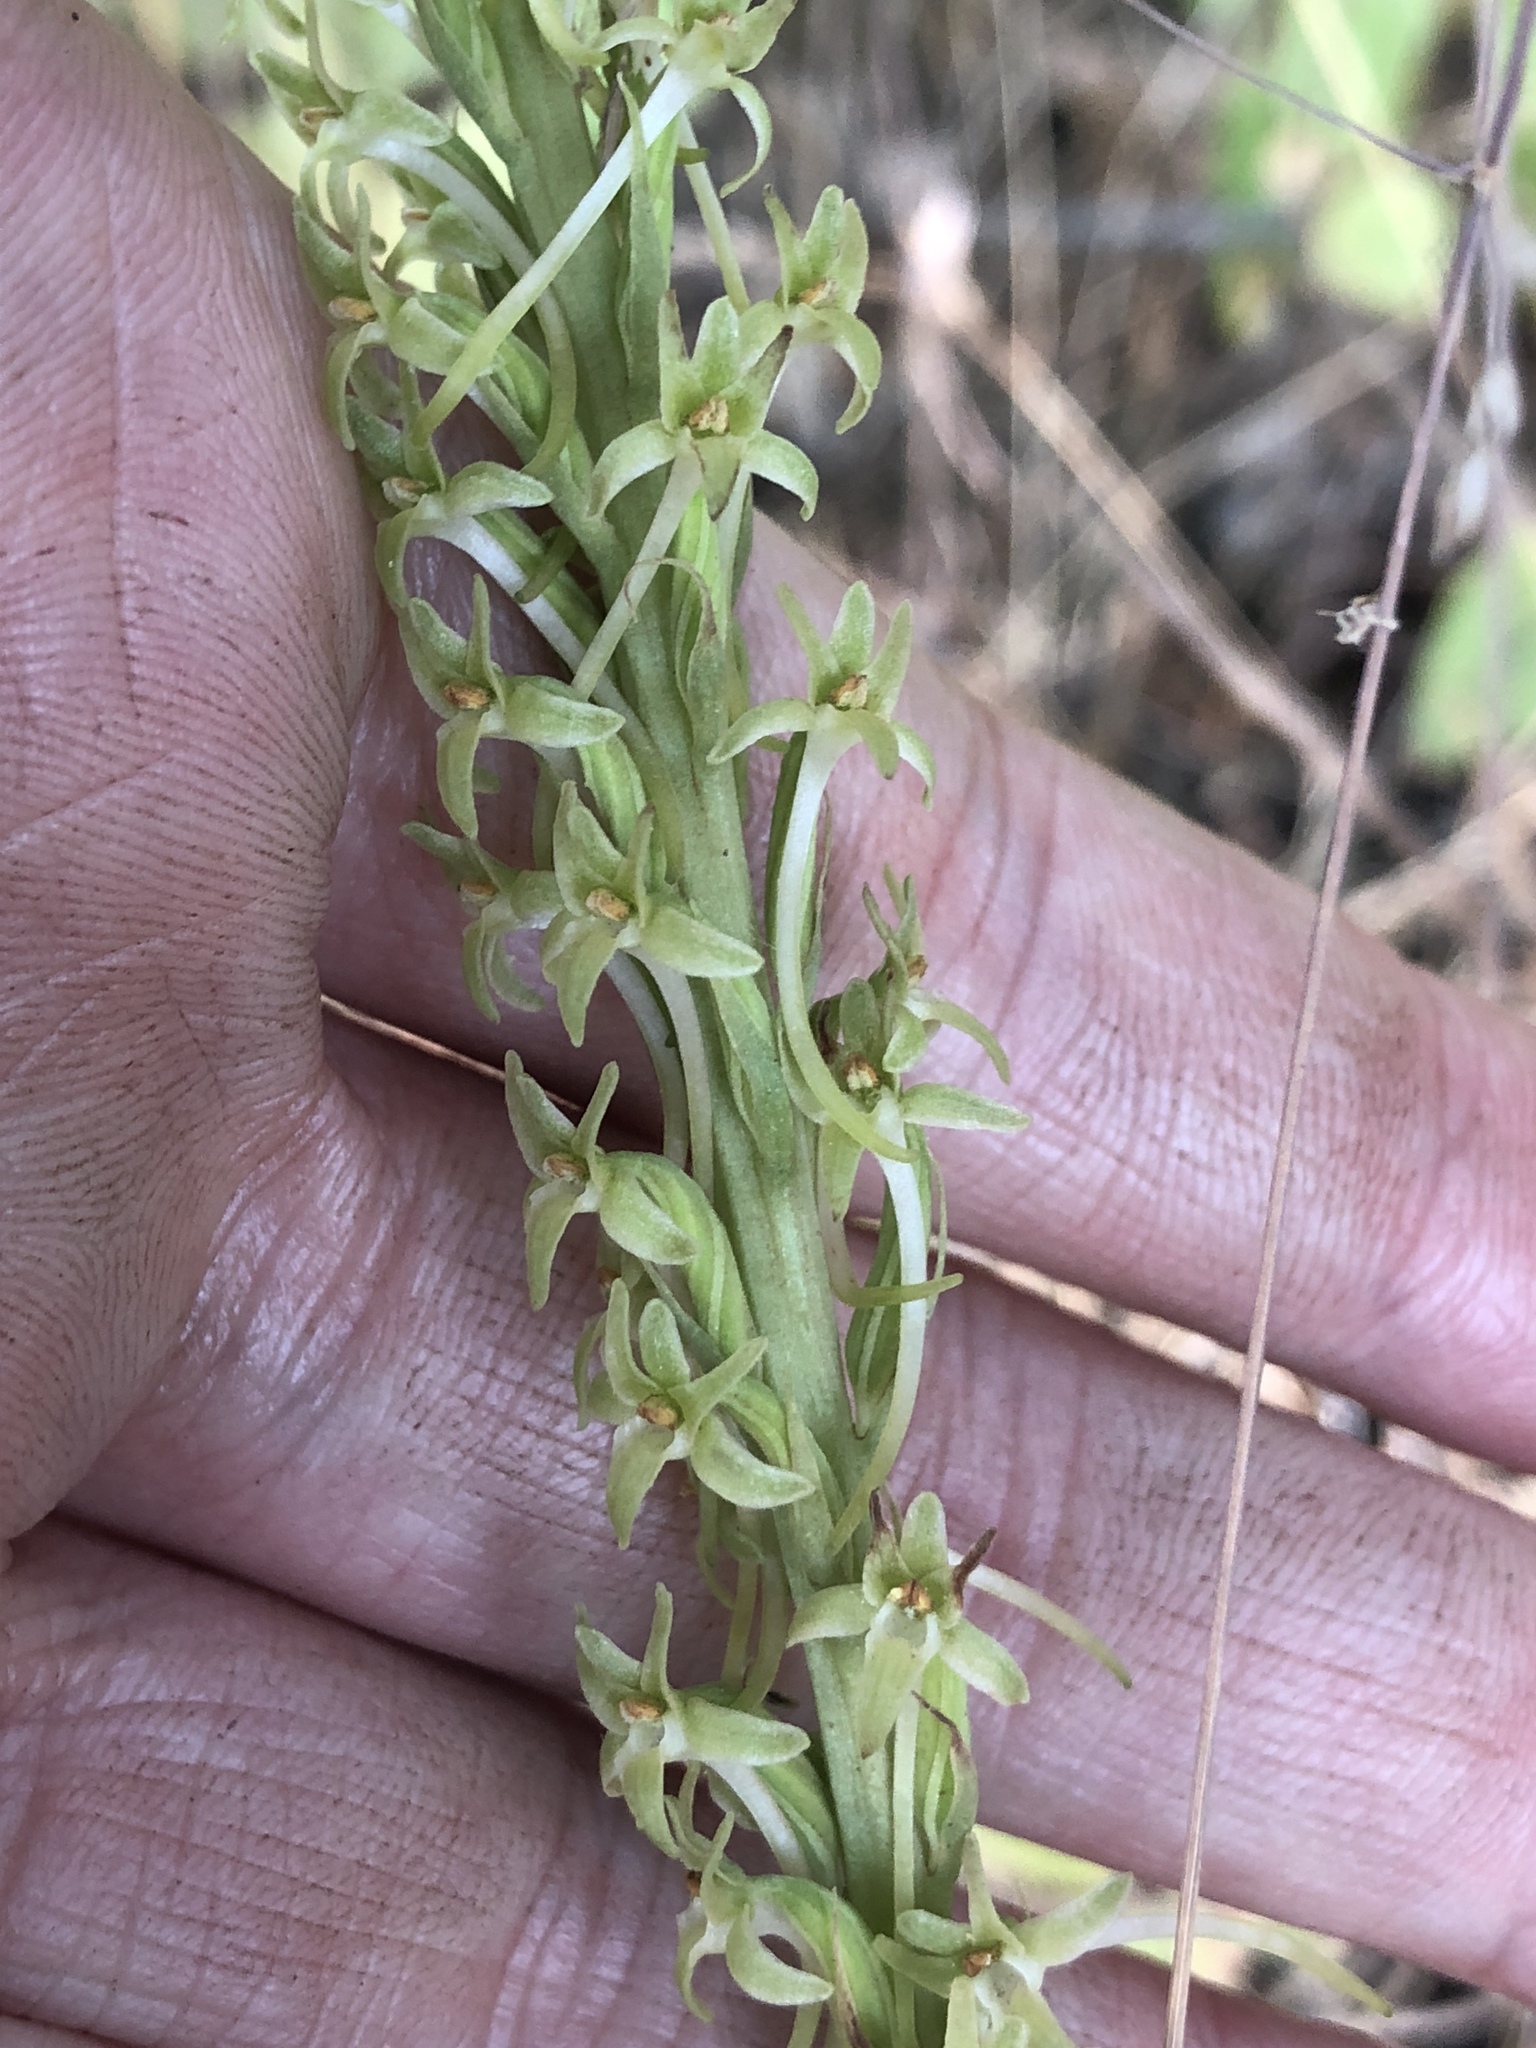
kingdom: Plantae
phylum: Tracheophyta
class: Liliopsida
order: Asparagales
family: Orchidaceae
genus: Platanthera
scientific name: Platanthera elongata
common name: Dense-flowered rein orchid
